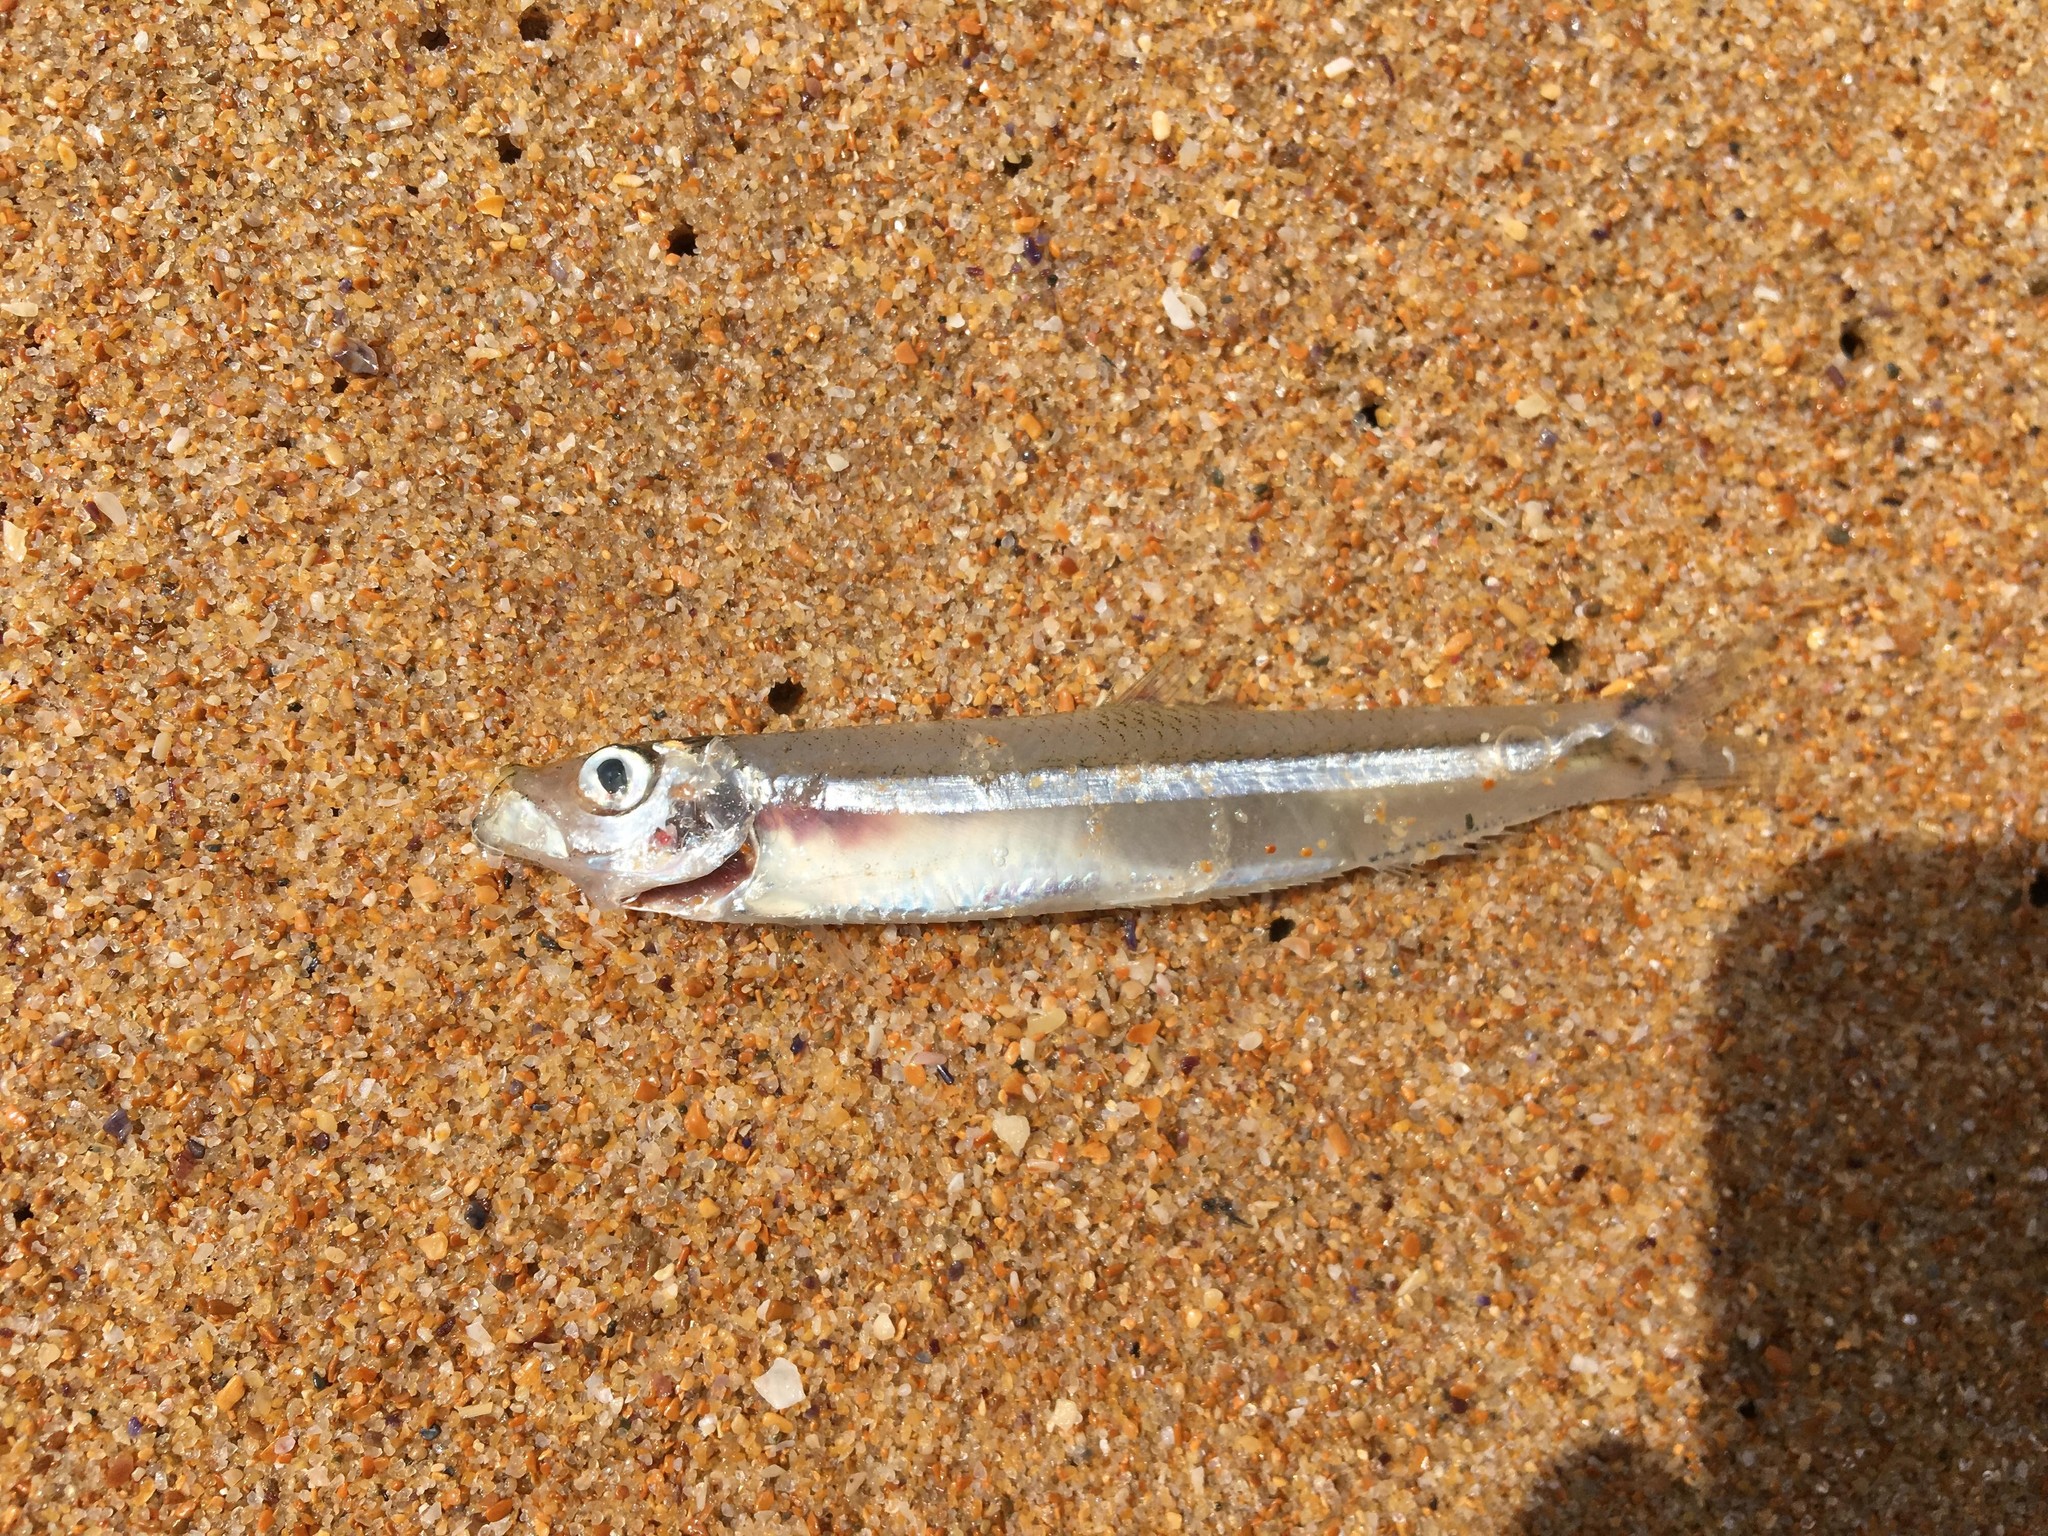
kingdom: Animalia
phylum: Chordata
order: Clupeiformes
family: Clupeidae
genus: Hyperlophus
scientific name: Hyperlophus vittatus
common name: Sandy sprat
